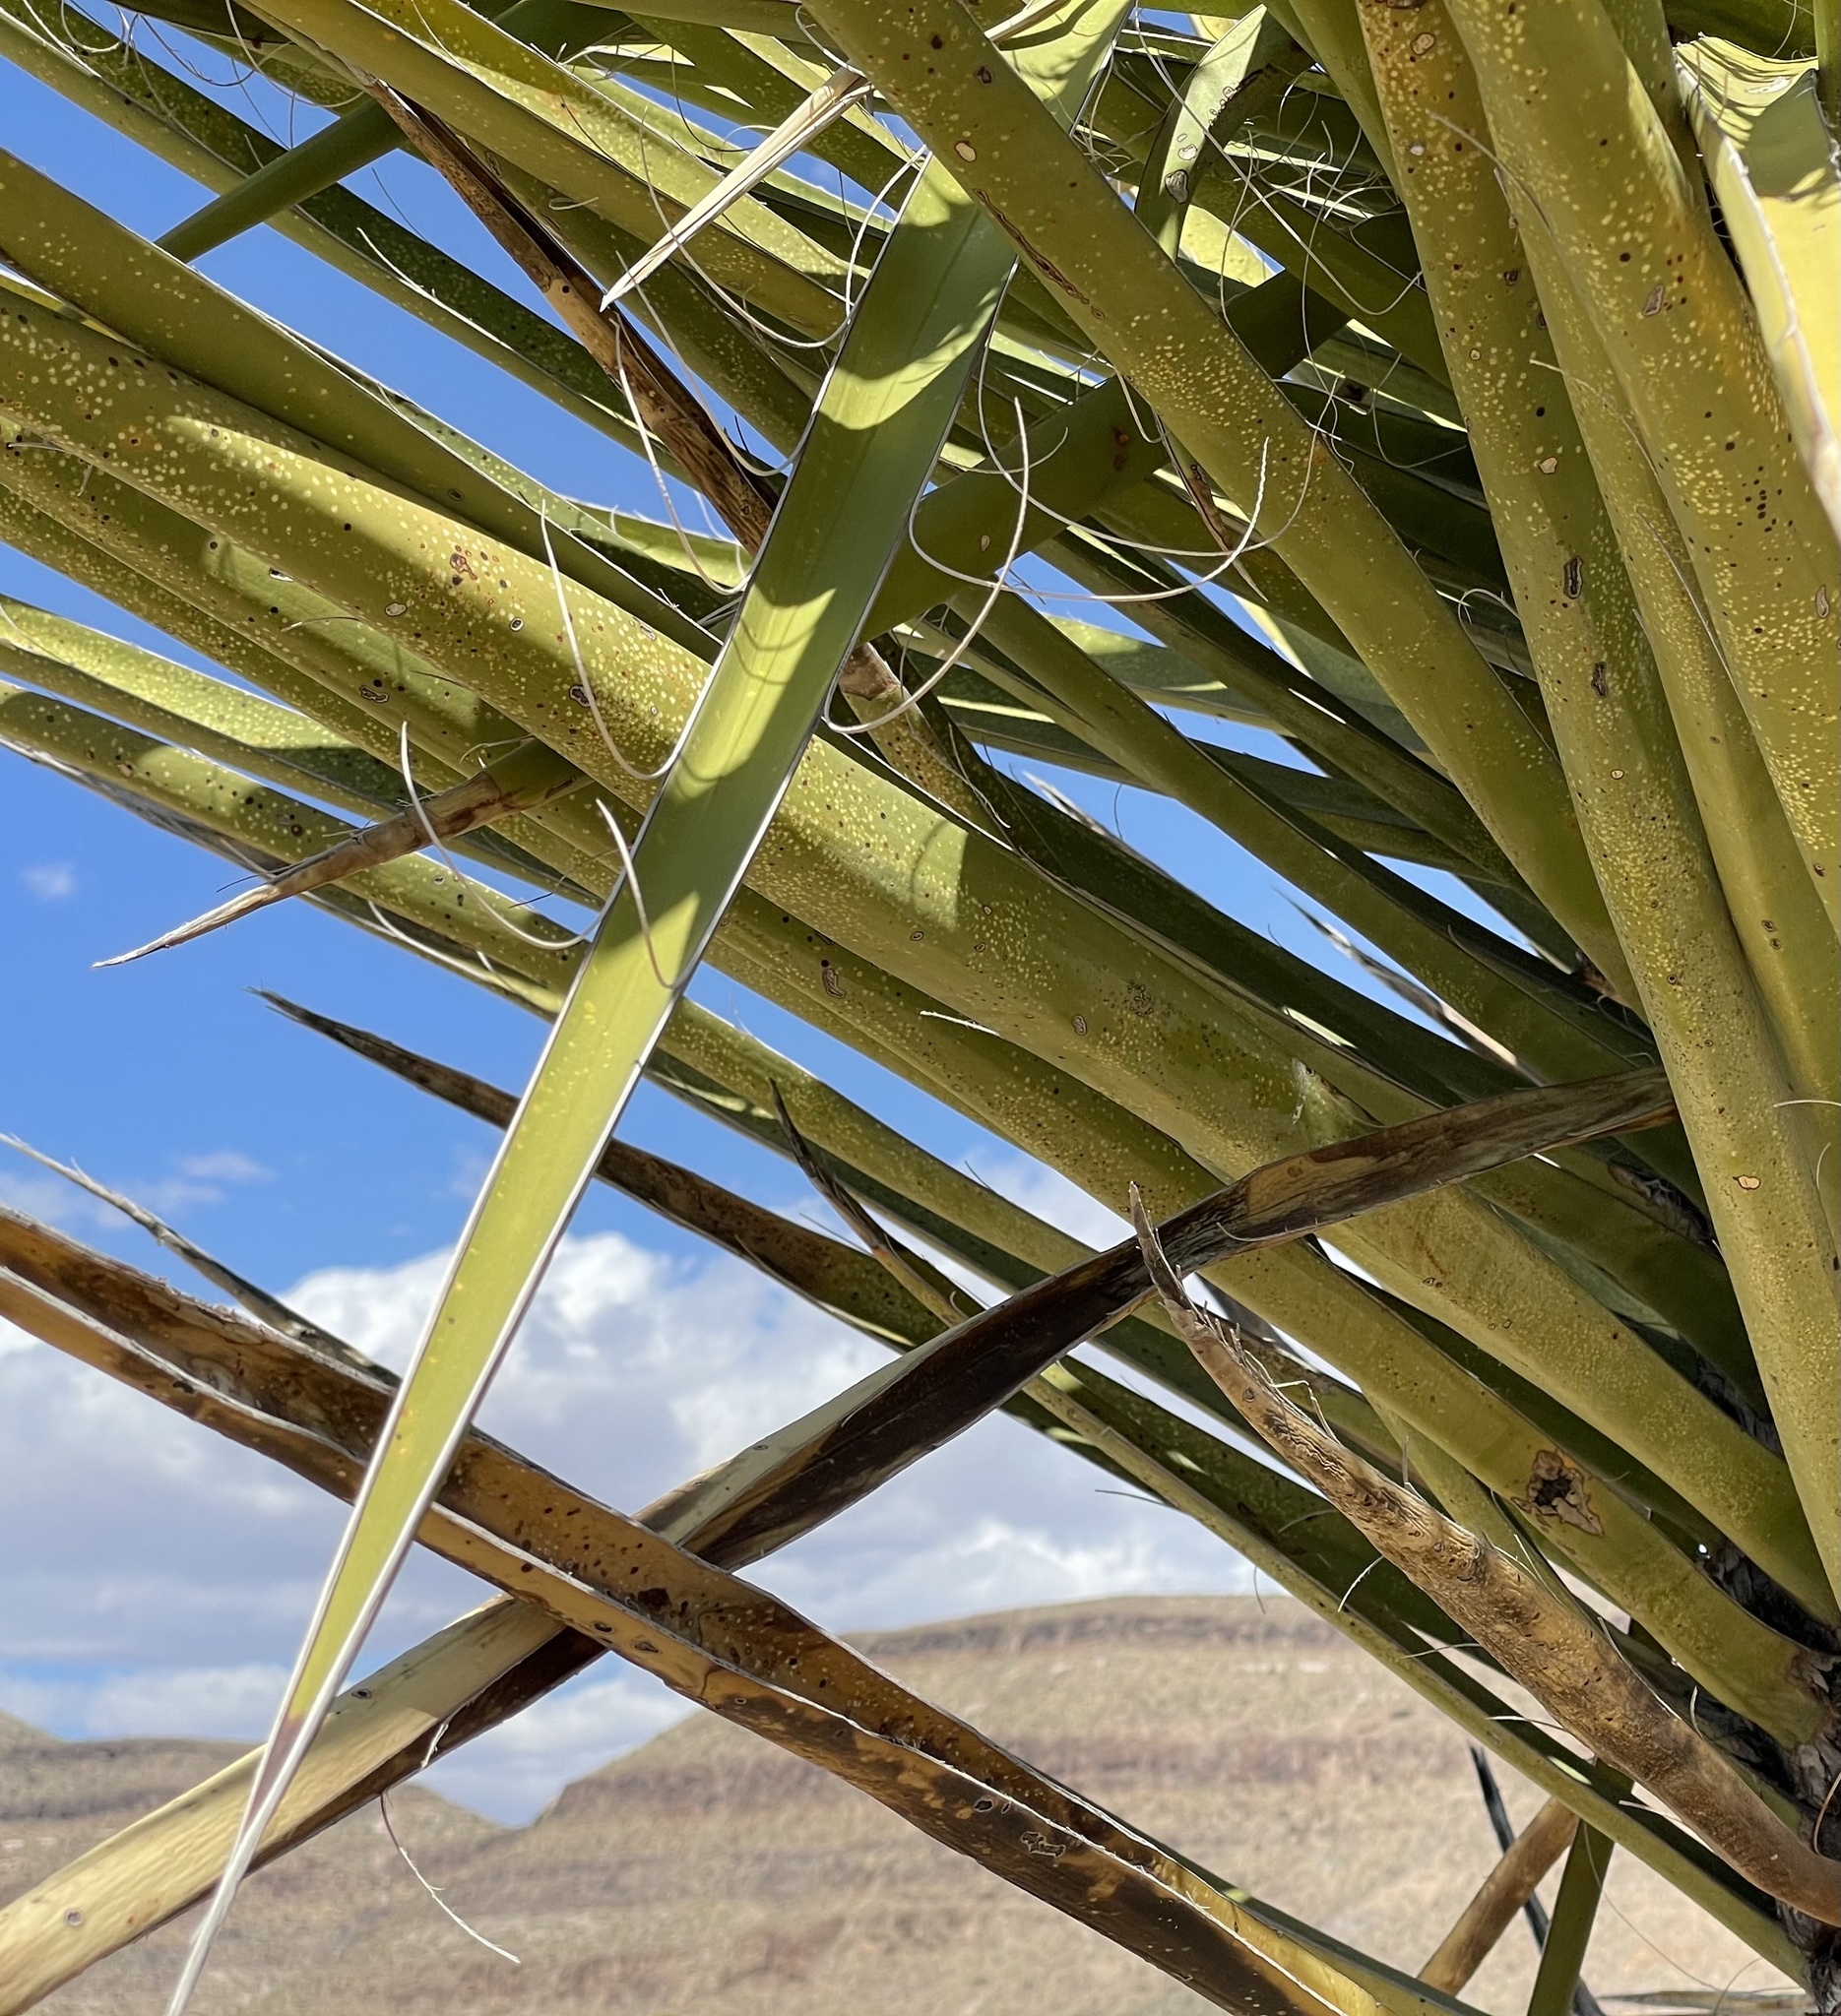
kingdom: Plantae
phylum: Tracheophyta
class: Liliopsida
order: Asparagales
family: Asparagaceae
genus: Yucca
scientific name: Yucca schidigera
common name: Mojave yucca
